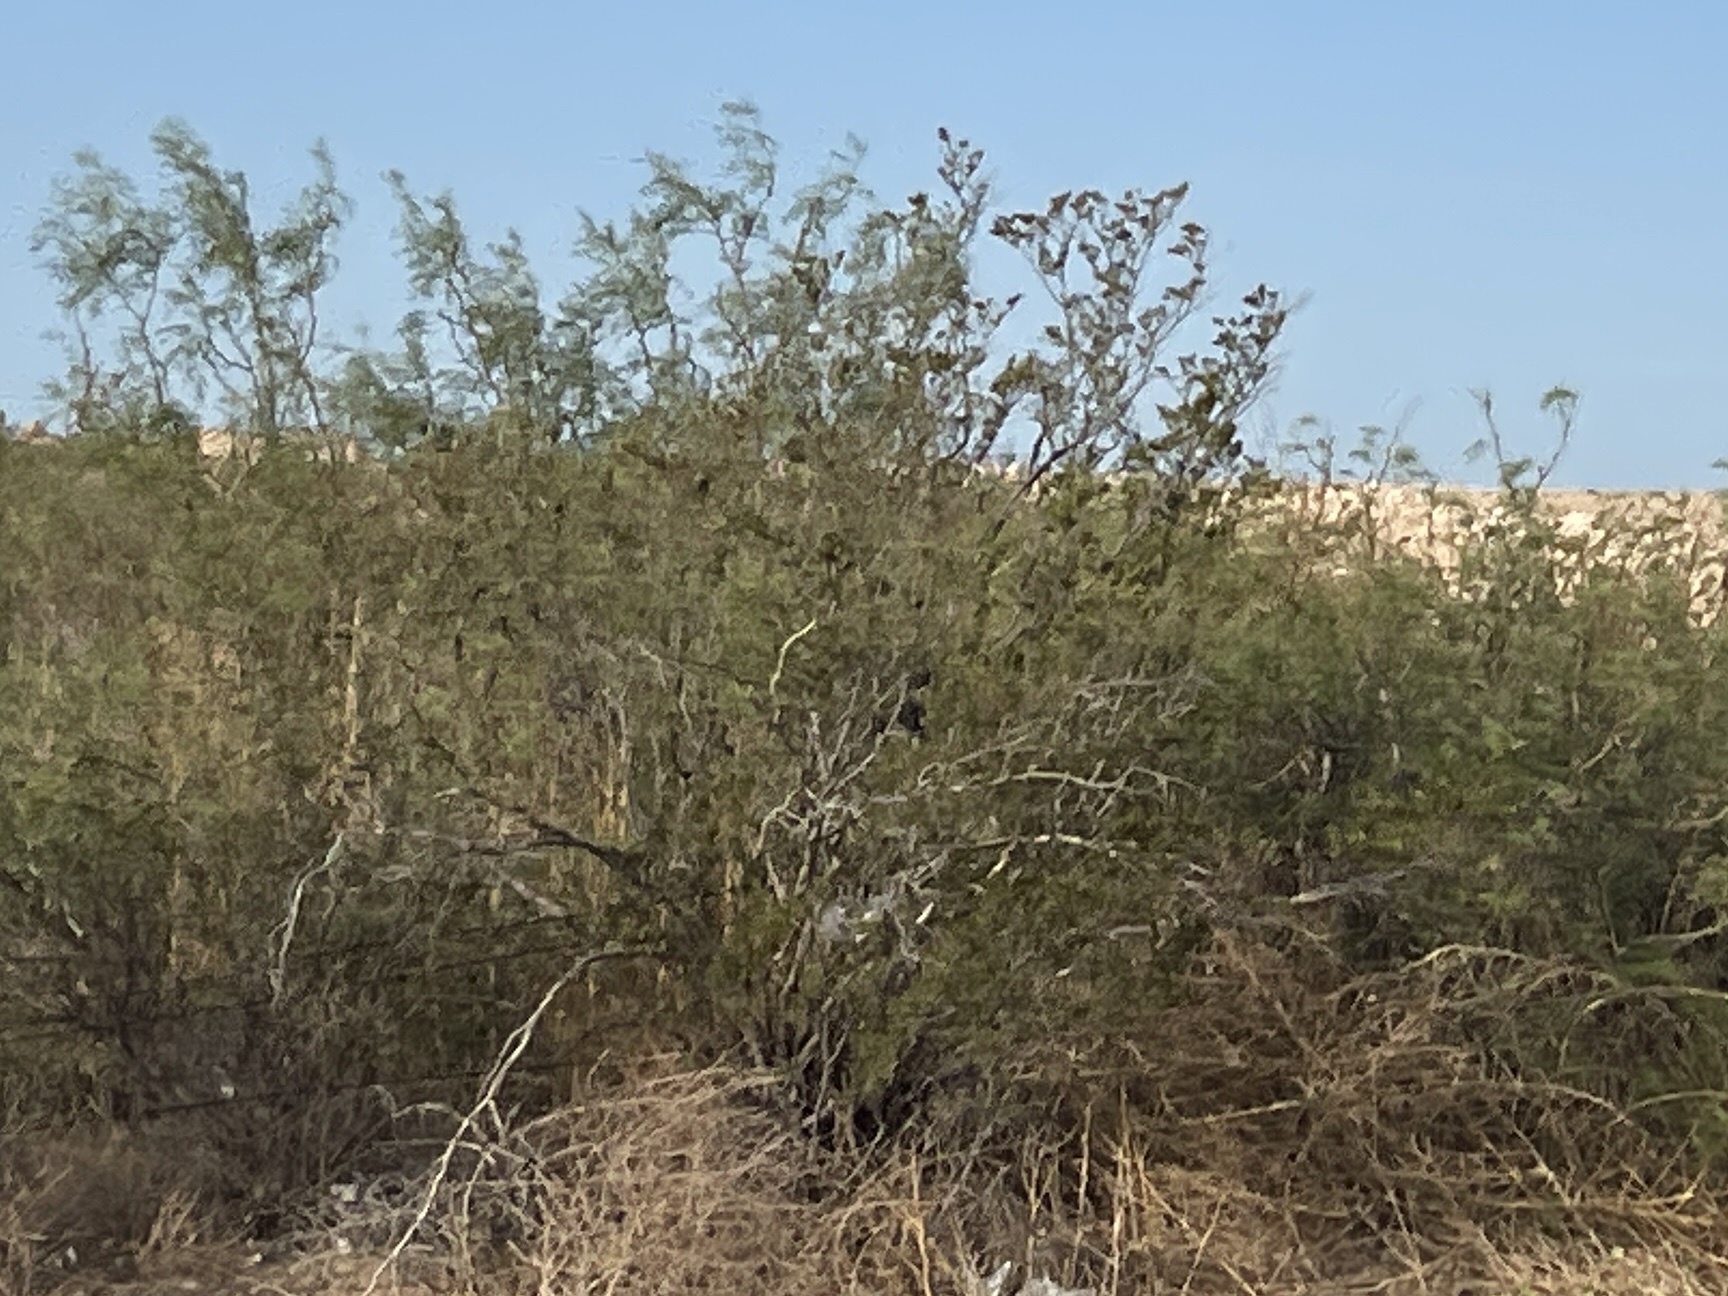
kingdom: Plantae
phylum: Tracheophyta
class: Magnoliopsida
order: Zygophyllales
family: Zygophyllaceae
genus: Larrea
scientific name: Larrea tridentata
